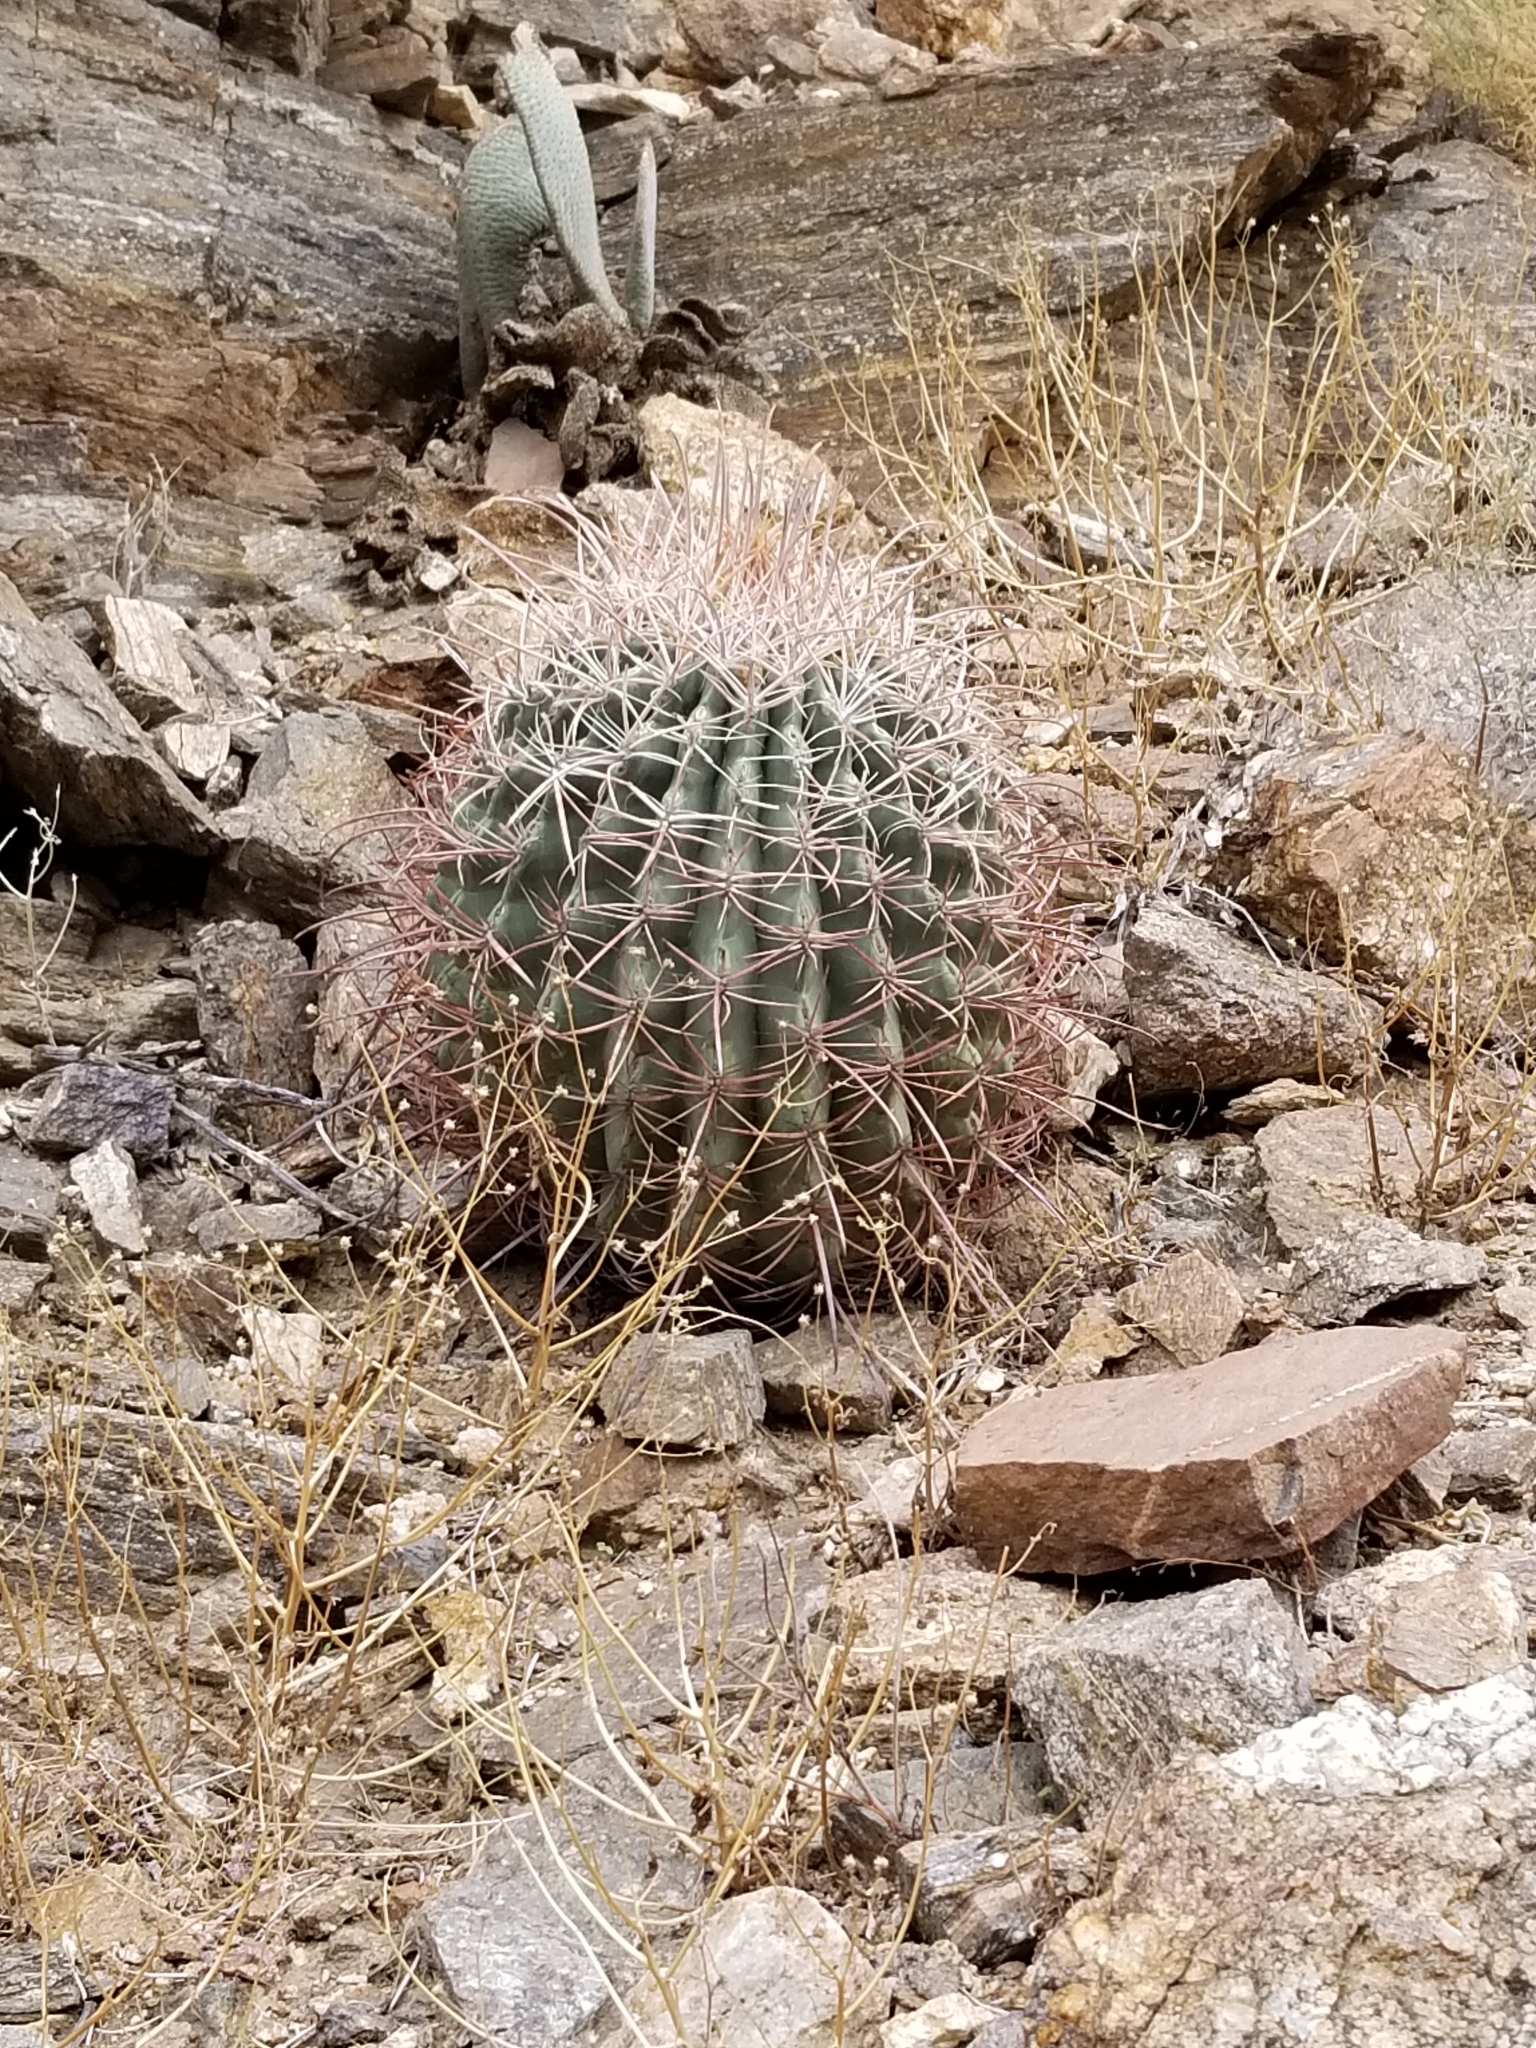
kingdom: Plantae
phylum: Tracheophyta
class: Magnoliopsida
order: Caryophyllales
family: Cactaceae
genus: Ferocactus
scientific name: Ferocactus cylindraceus
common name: California barrel cactus
